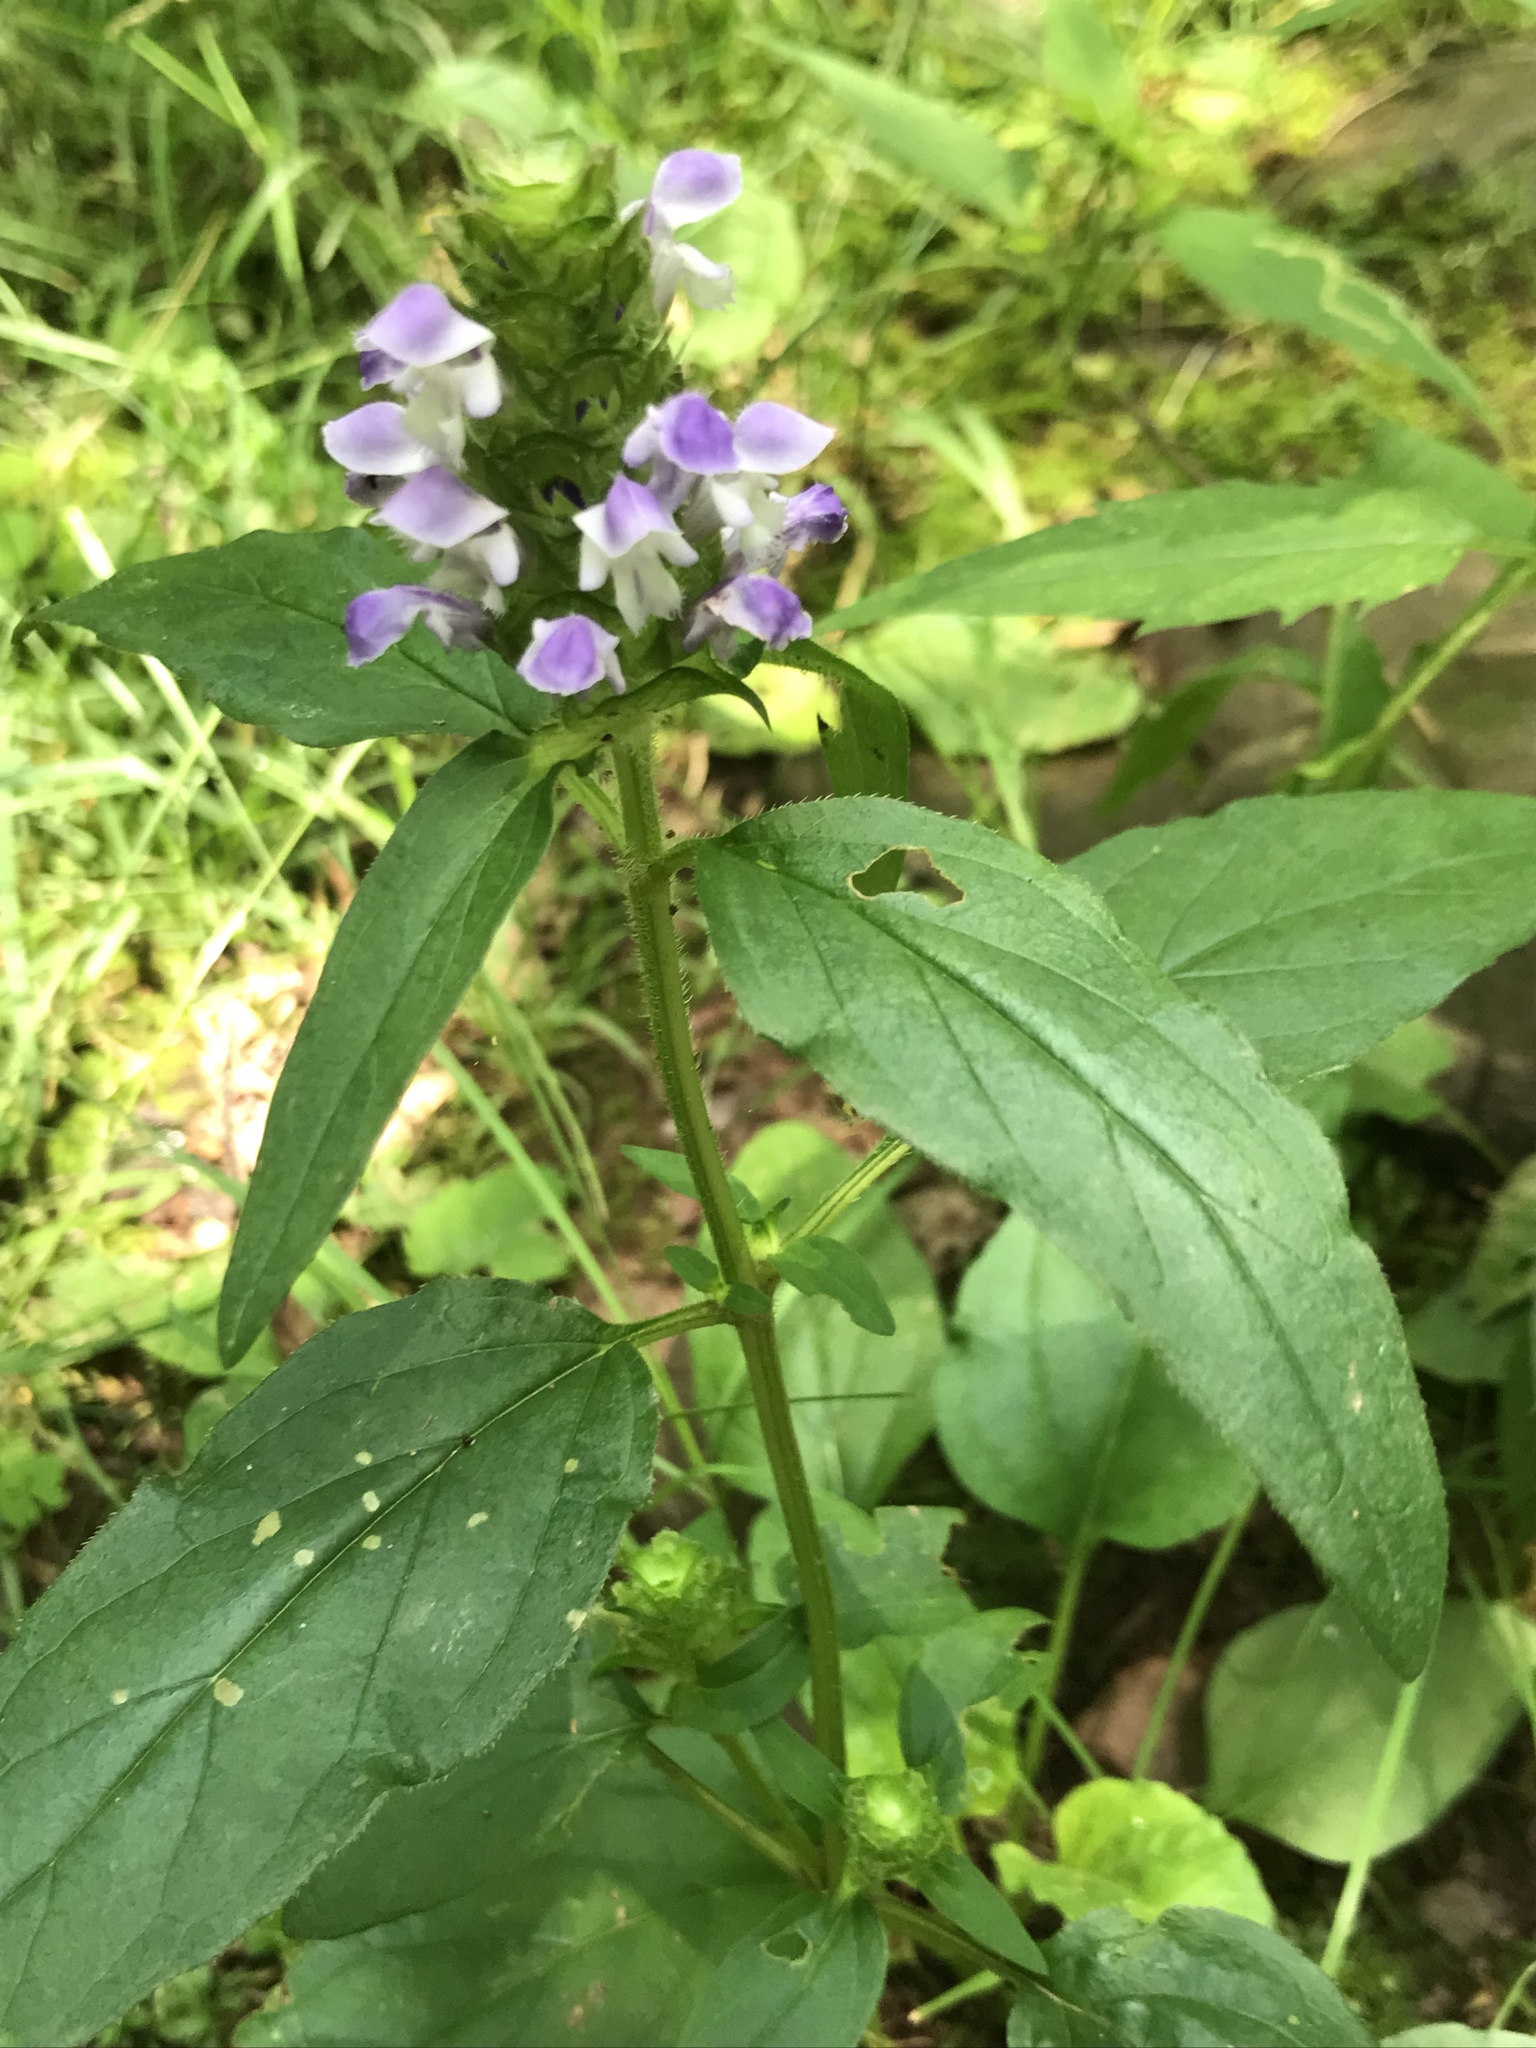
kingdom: Plantae
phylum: Tracheophyta
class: Magnoliopsida
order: Lamiales
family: Lamiaceae
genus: Prunella
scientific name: Prunella vulgaris
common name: Heal-all
